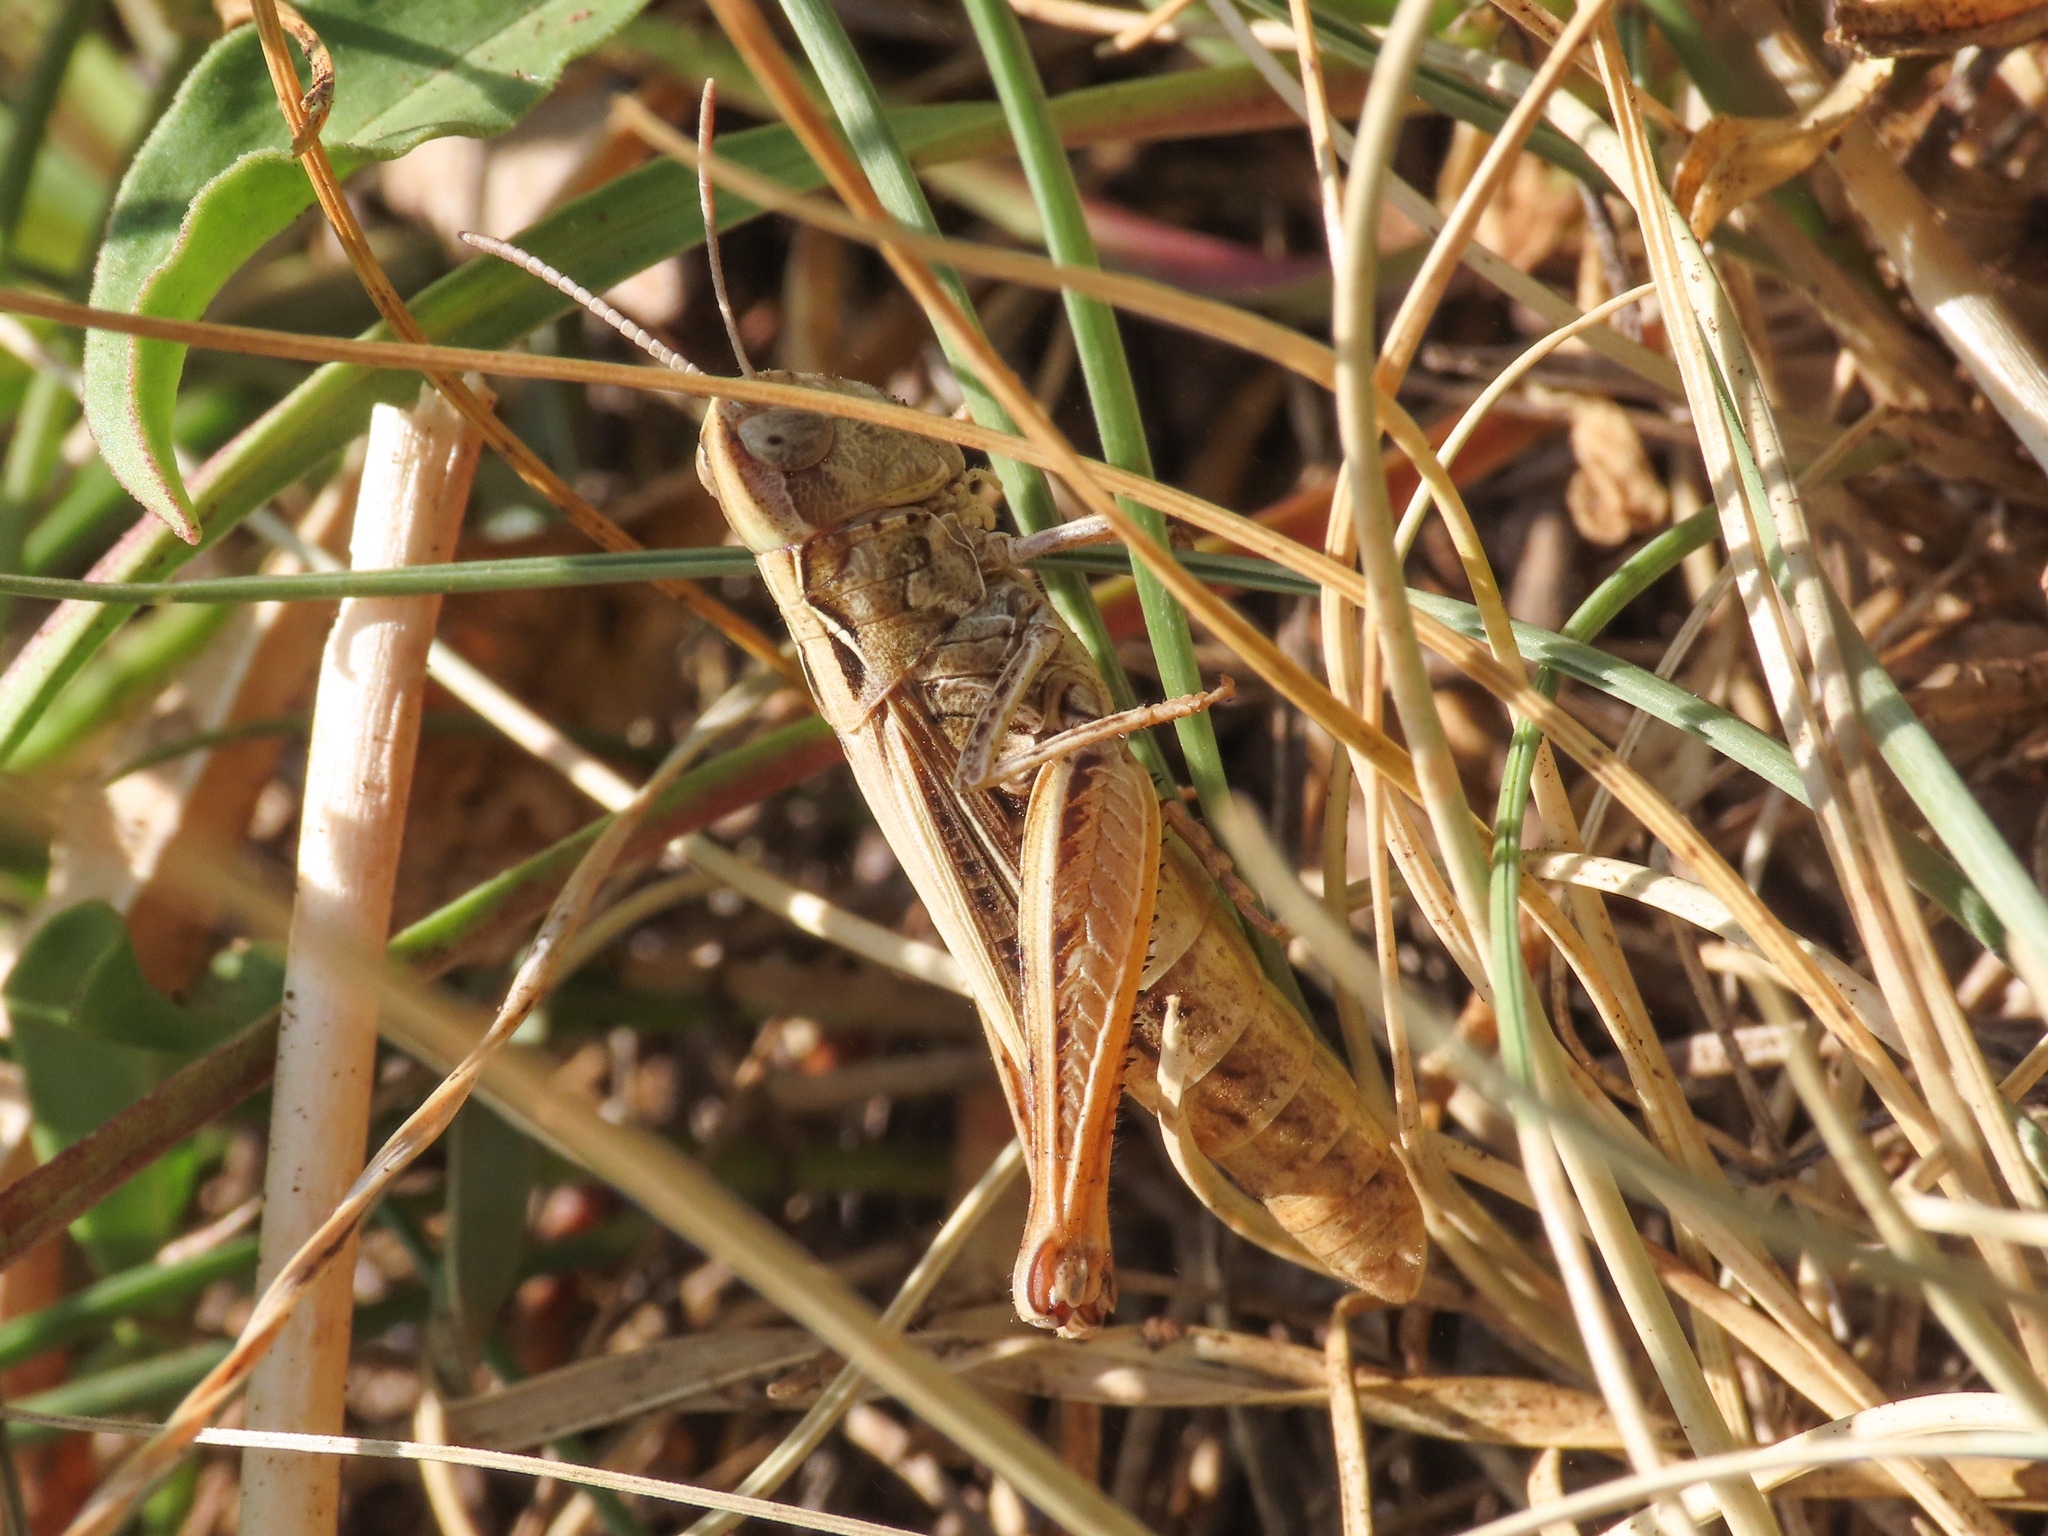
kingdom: Animalia
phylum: Arthropoda
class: Insecta
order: Orthoptera
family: Acrididae
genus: Italohippus
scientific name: Italohippus monticola
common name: Gran sasso italian grasshopper
